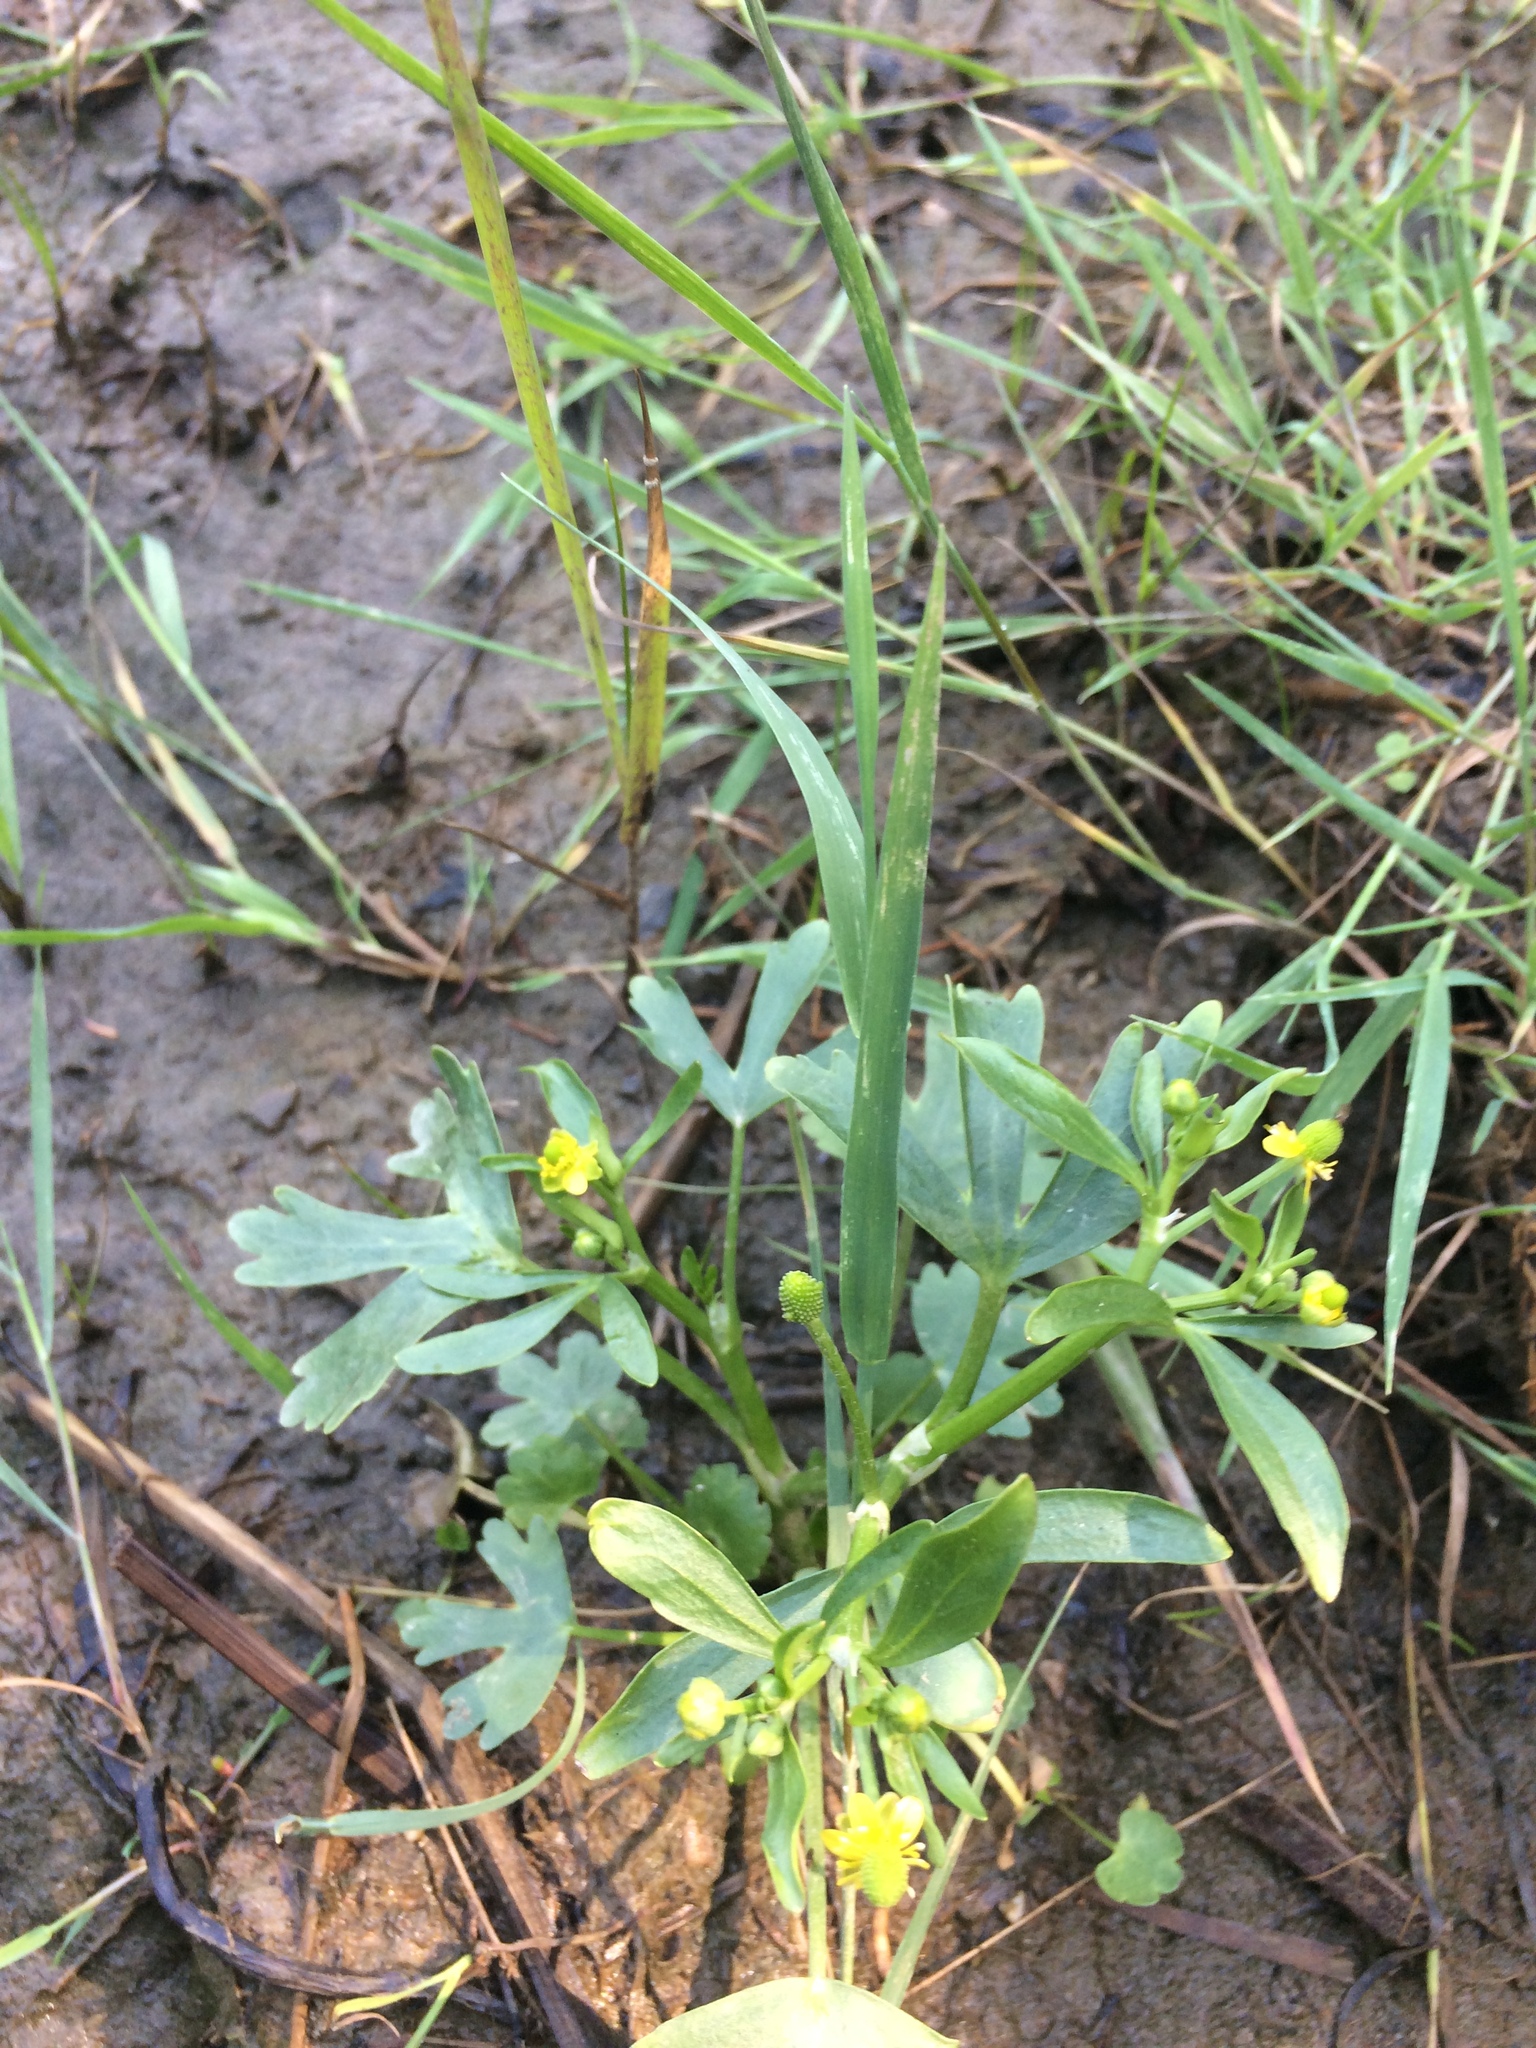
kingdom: Plantae
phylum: Tracheophyta
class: Magnoliopsida
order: Ranunculales
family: Ranunculaceae
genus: Ranunculus
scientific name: Ranunculus sceleratus
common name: Celery-leaved buttercup
